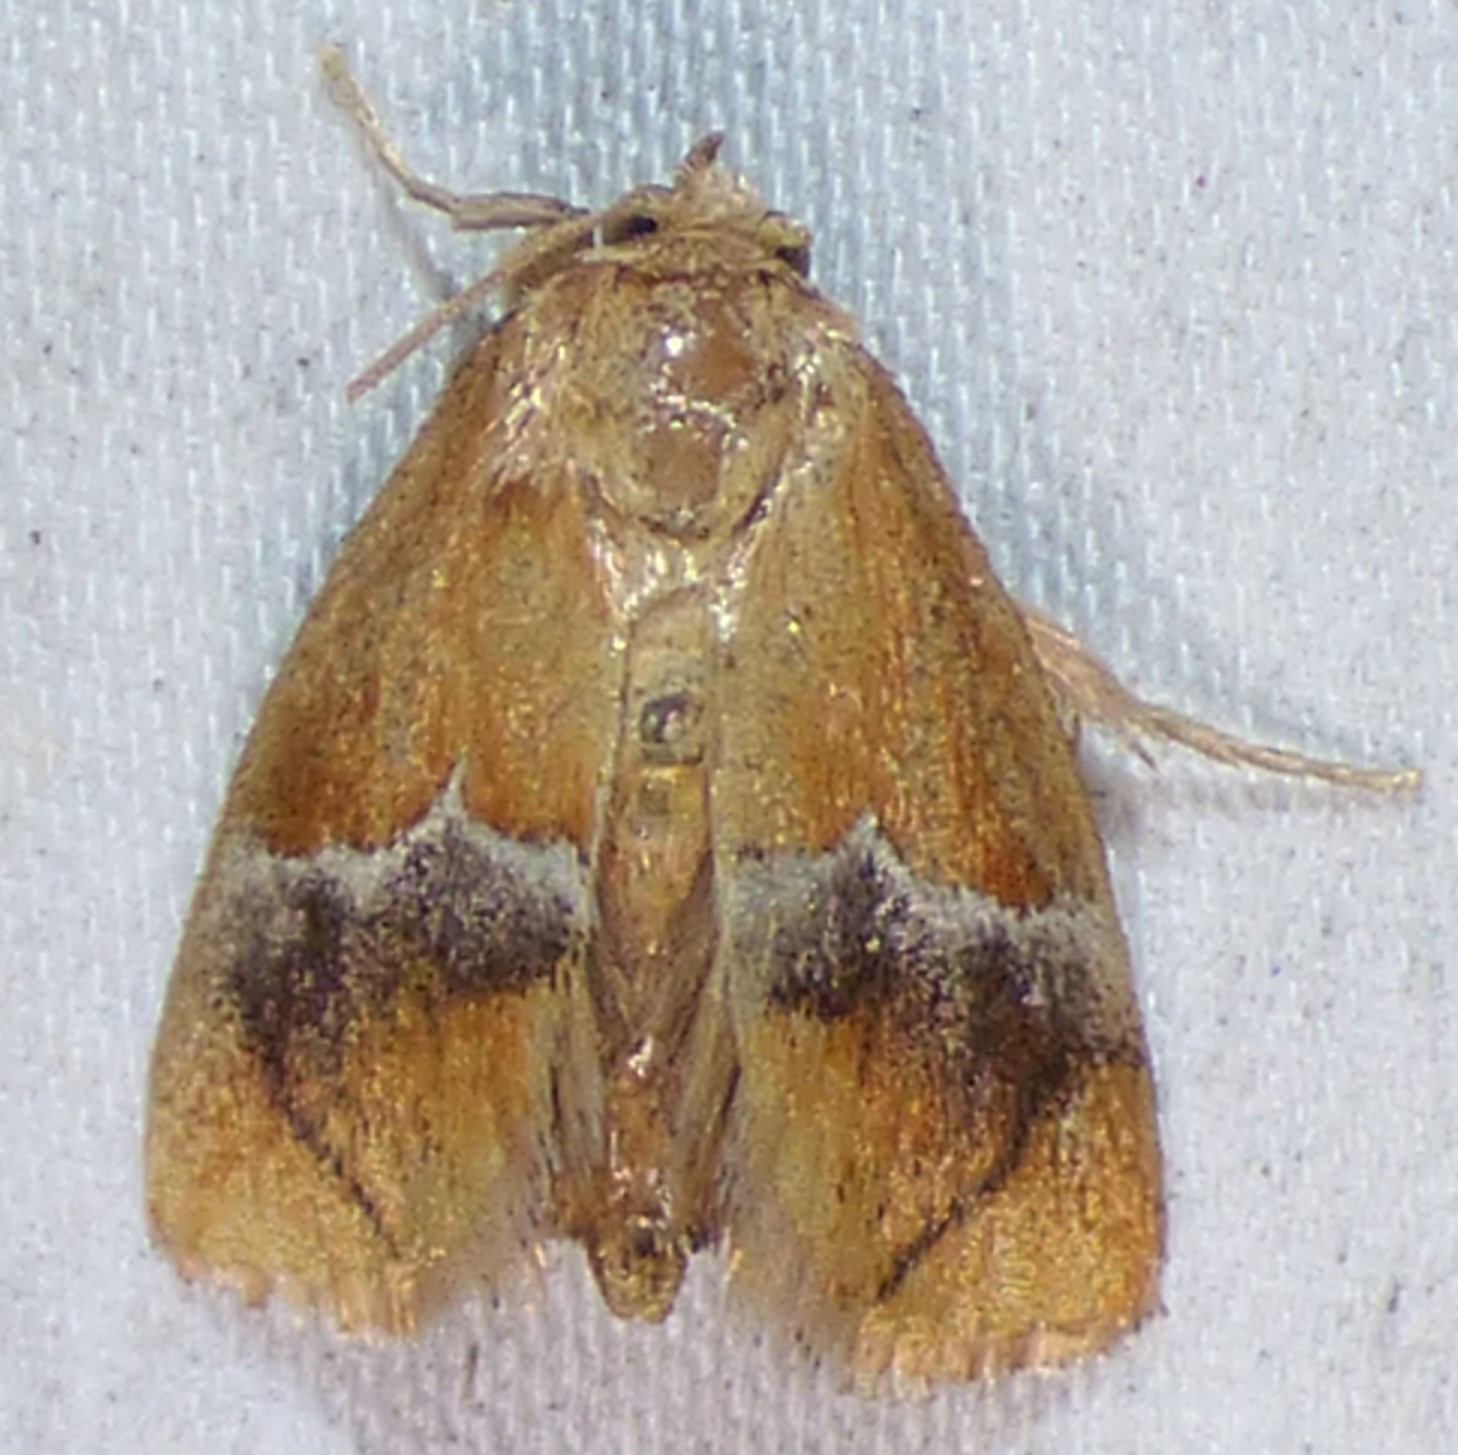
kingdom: Animalia
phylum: Arthropoda
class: Insecta
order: Lepidoptera
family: Limacodidae
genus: Lithacodes
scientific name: Lithacodes fasciola
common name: Yellow-shouldered slug moth
